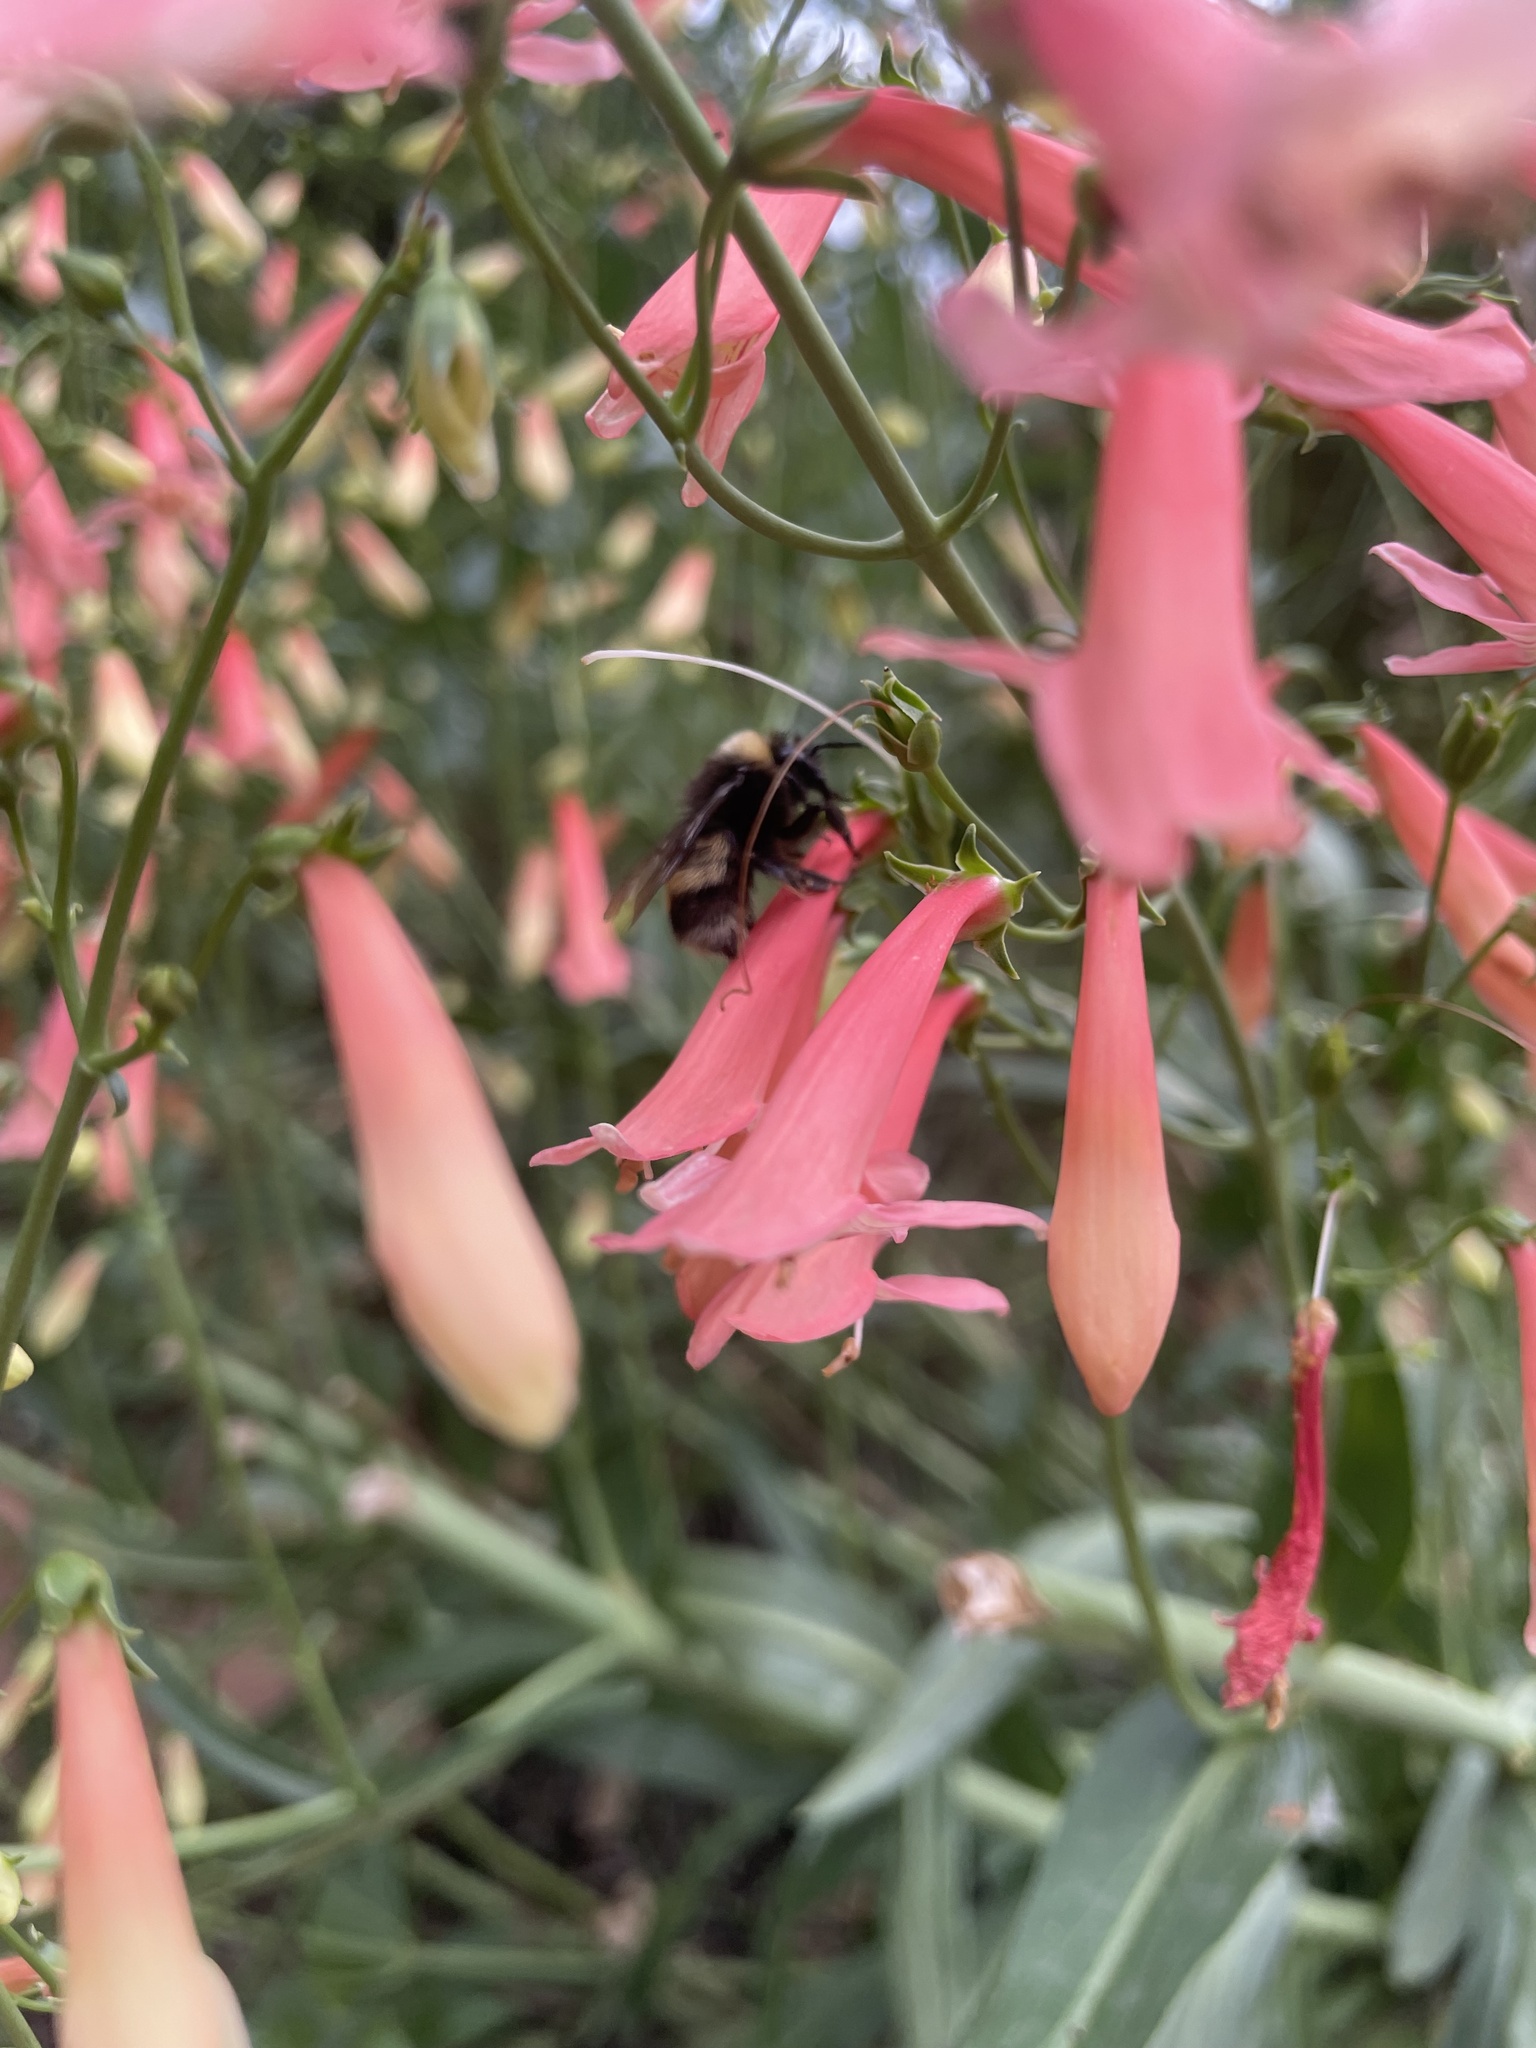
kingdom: Animalia
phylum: Arthropoda
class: Insecta
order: Hymenoptera
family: Apidae
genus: Bombus
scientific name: Bombus occidentalis
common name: Western bumble bee
